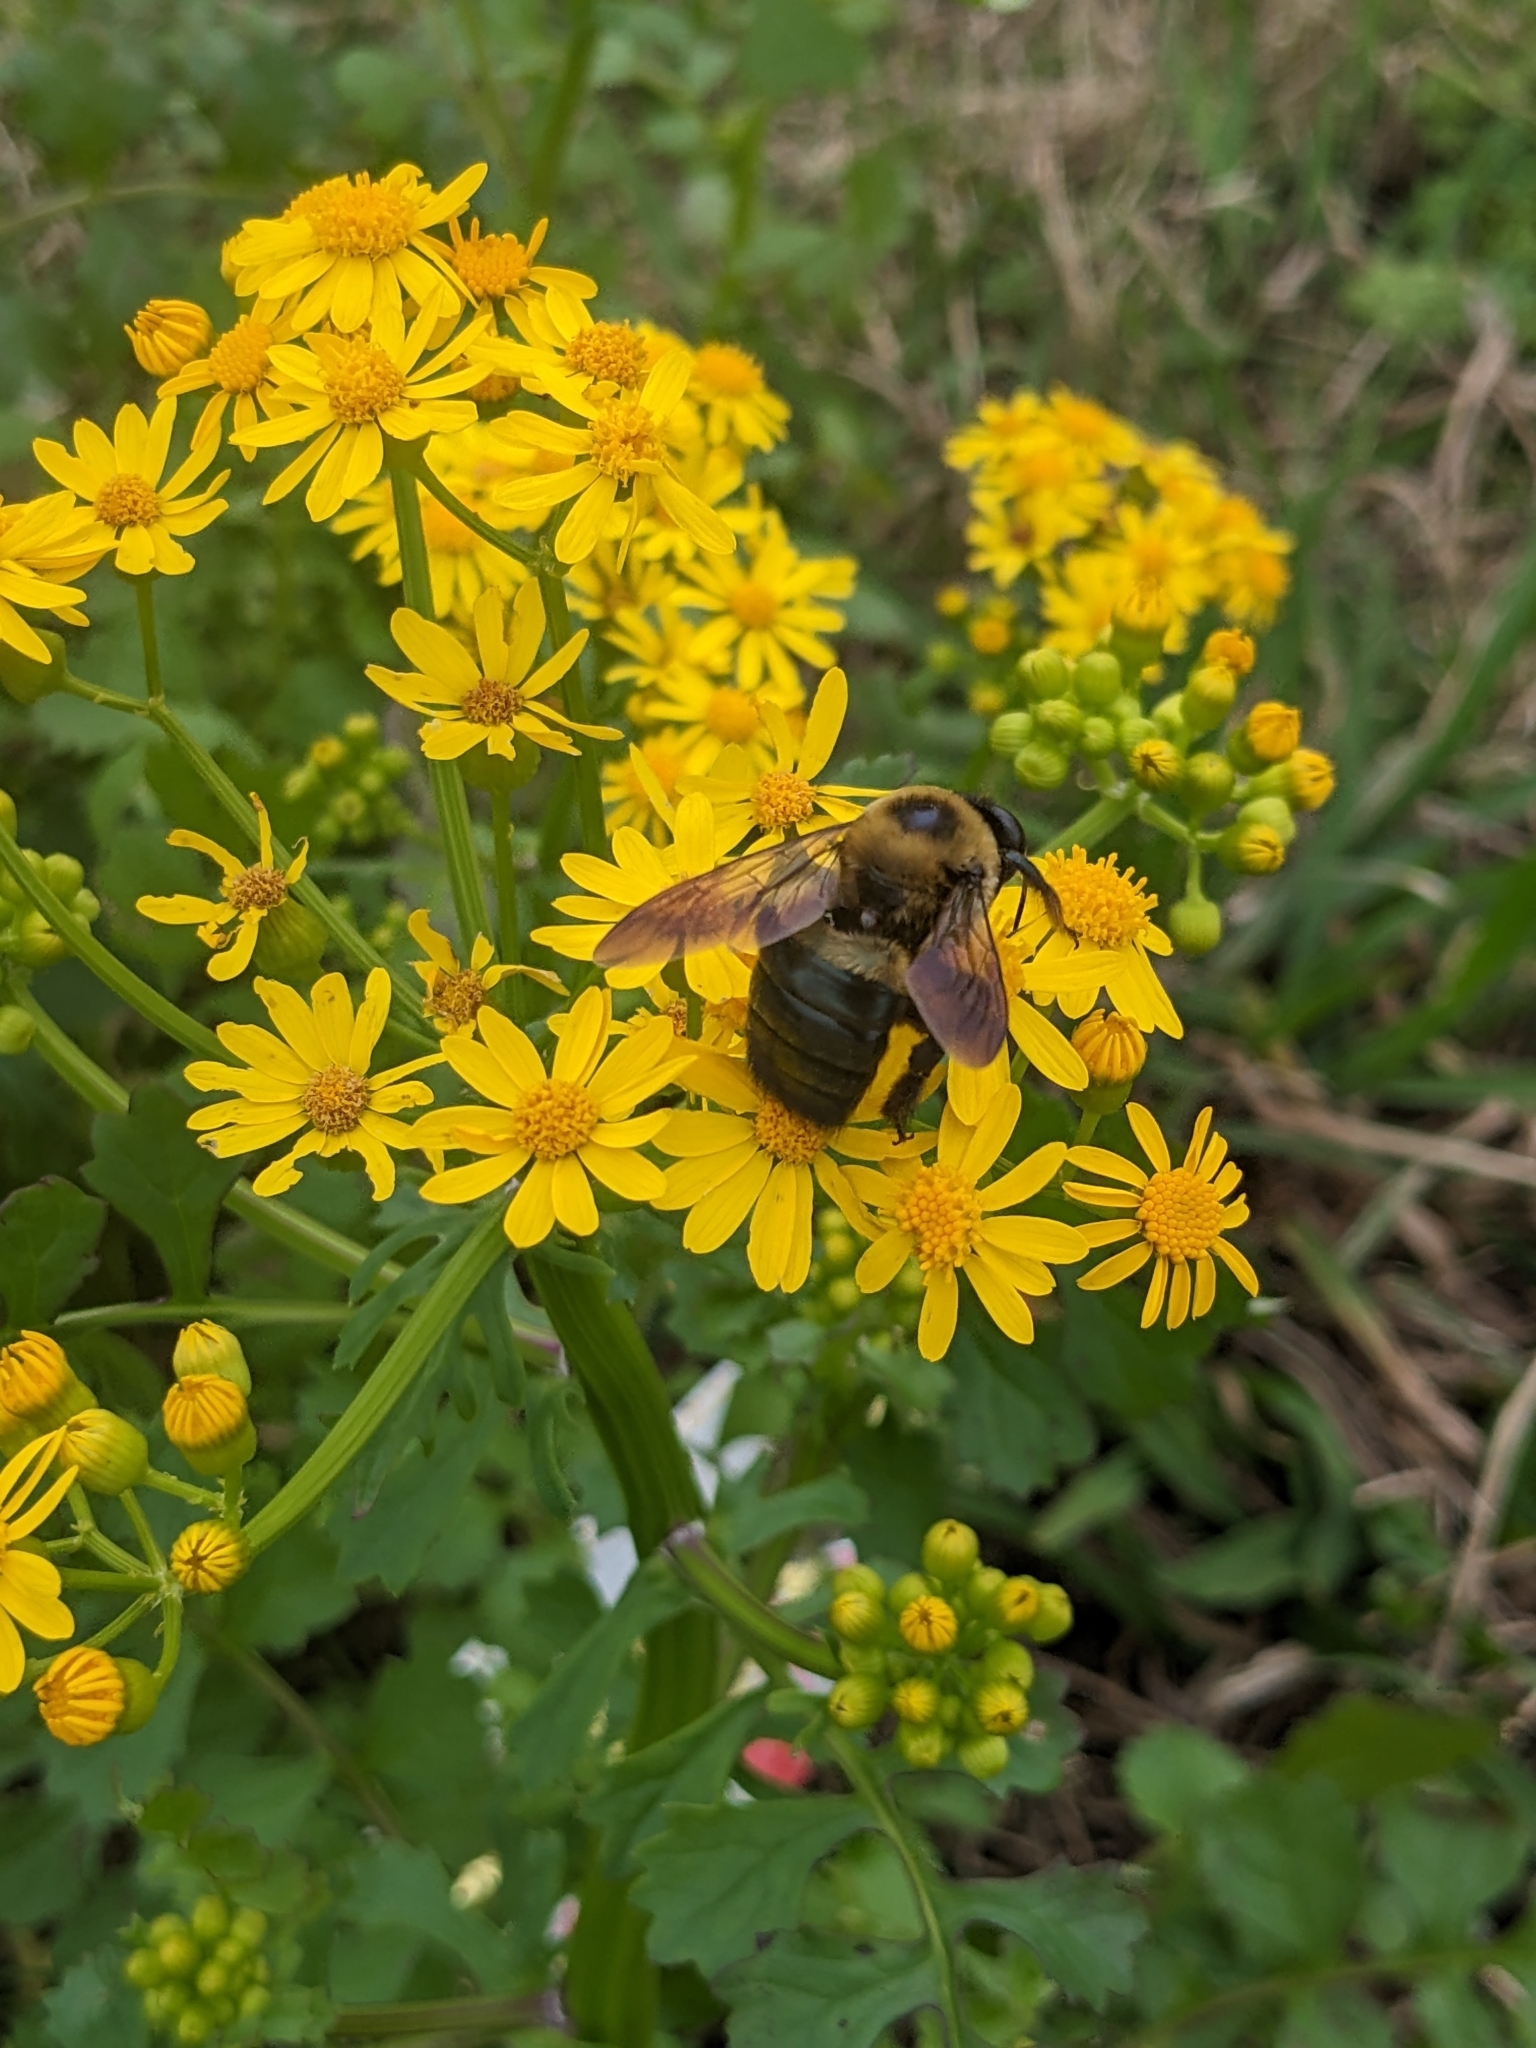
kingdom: Animalia
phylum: Arthropoda
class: Insecta
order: Hymenoptera
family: Apidae
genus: Xylocopa
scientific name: Xylocopa virginica
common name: Carpenter bee
